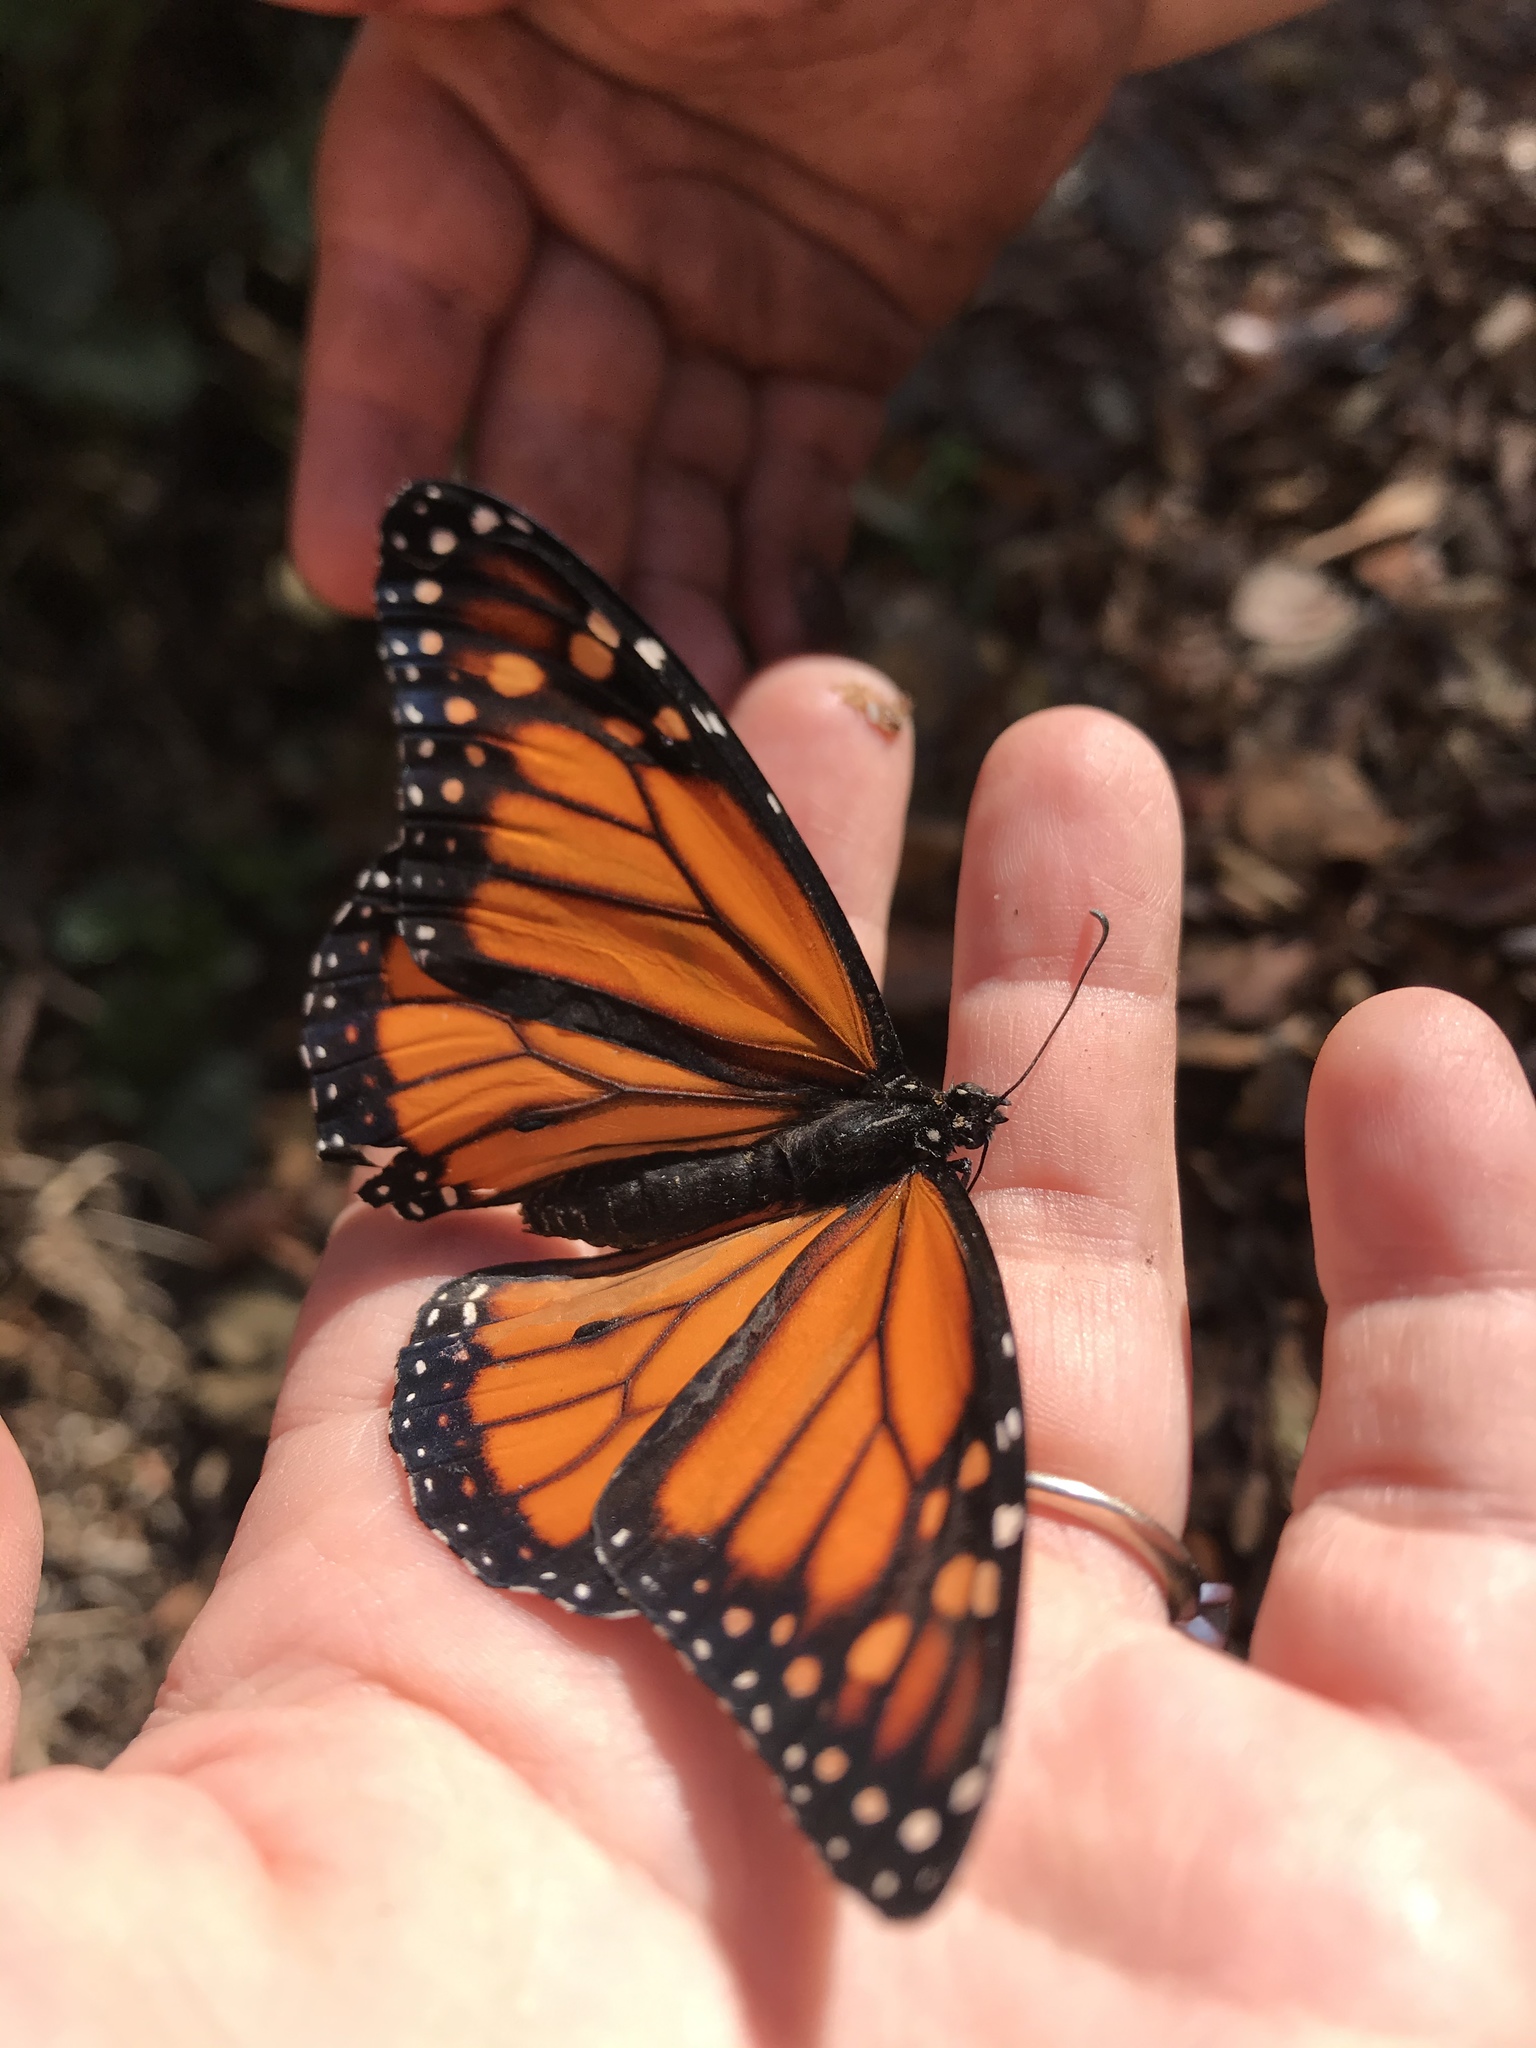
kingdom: Animalia
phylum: Arthropoda
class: Insecta
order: Lepidoptera
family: Nymphalidae
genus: Danaus
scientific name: Danaus plexippus
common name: Monarch
